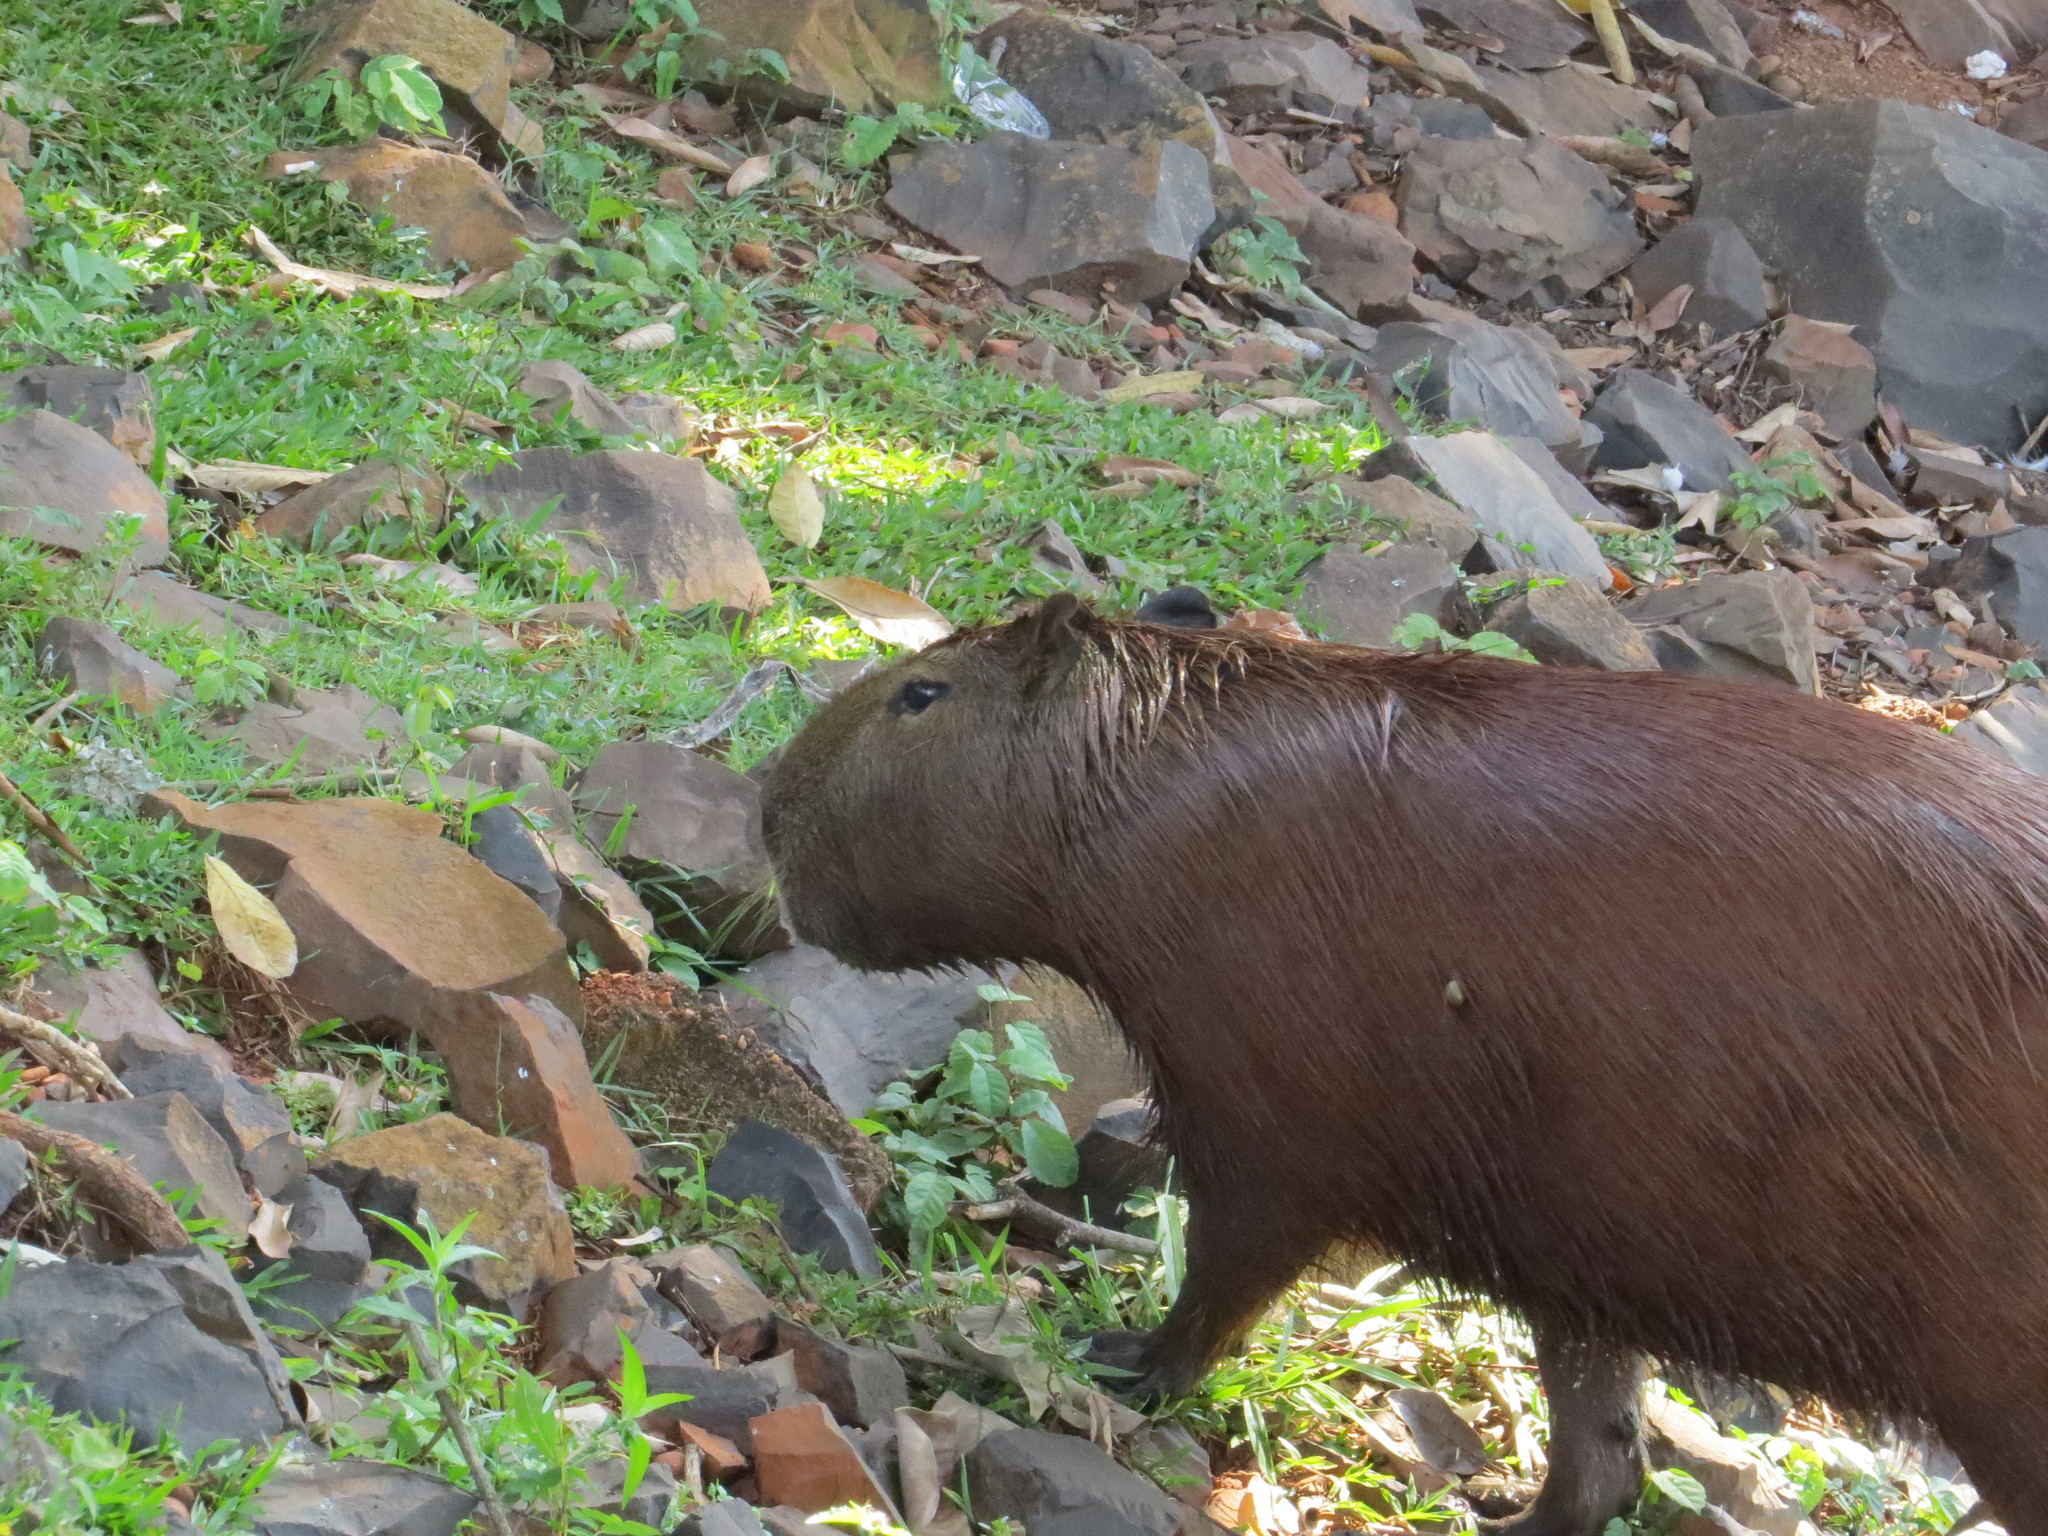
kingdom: Animalia
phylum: Chordata
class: Mammalia
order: Rodentia
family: Caviidae
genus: Hydrochoerus
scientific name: Hydrochoerus hydrochaeris
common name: Capybara
